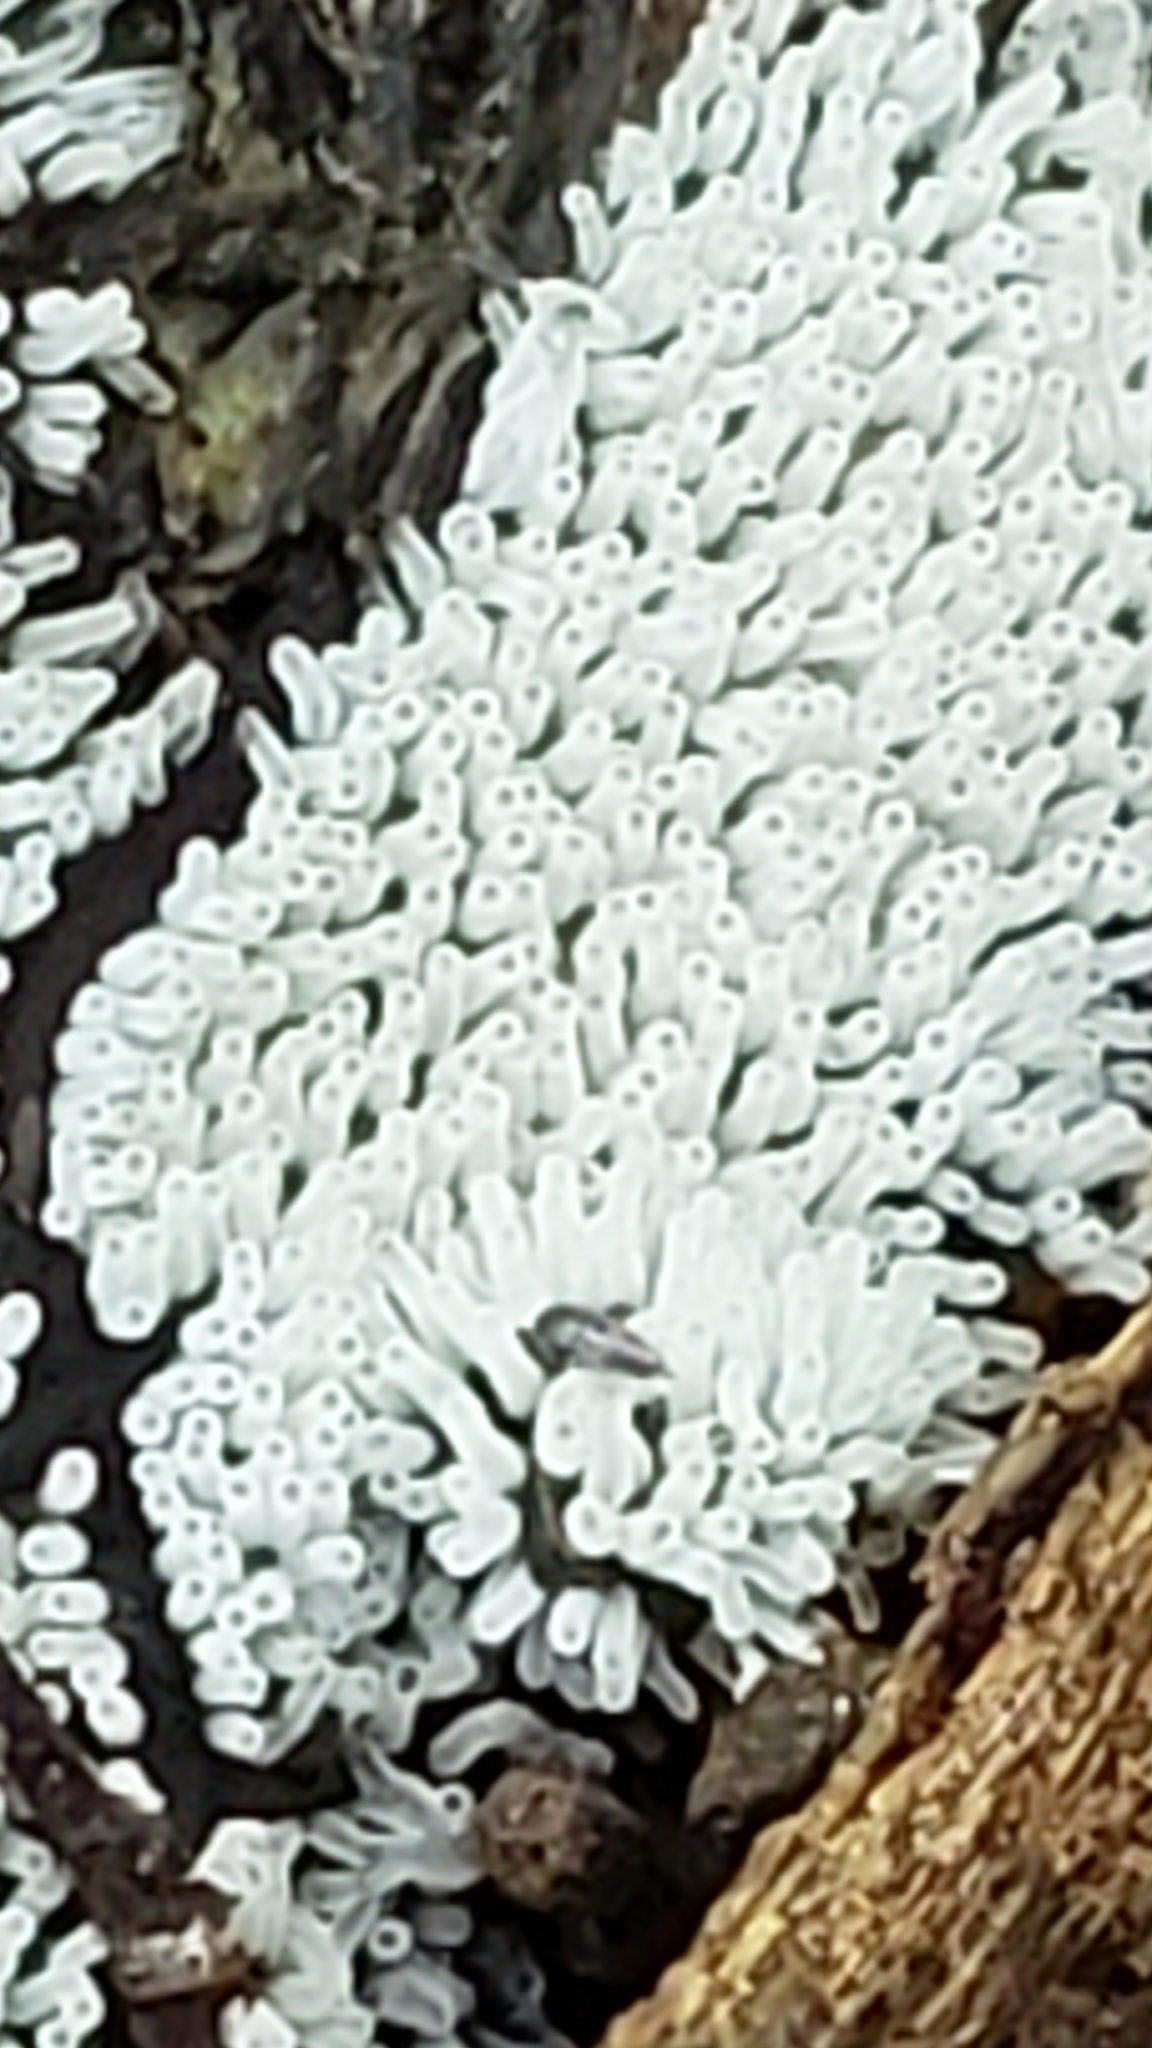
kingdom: Protozoa
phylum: Mycetozoa
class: Protosteliomycetes
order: Ceratiomyxales
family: Ceratiomyxaceae
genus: Ceratiomyxa
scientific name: Ceratiomyxa fruticulosa
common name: Honeycomb coral slime mold
